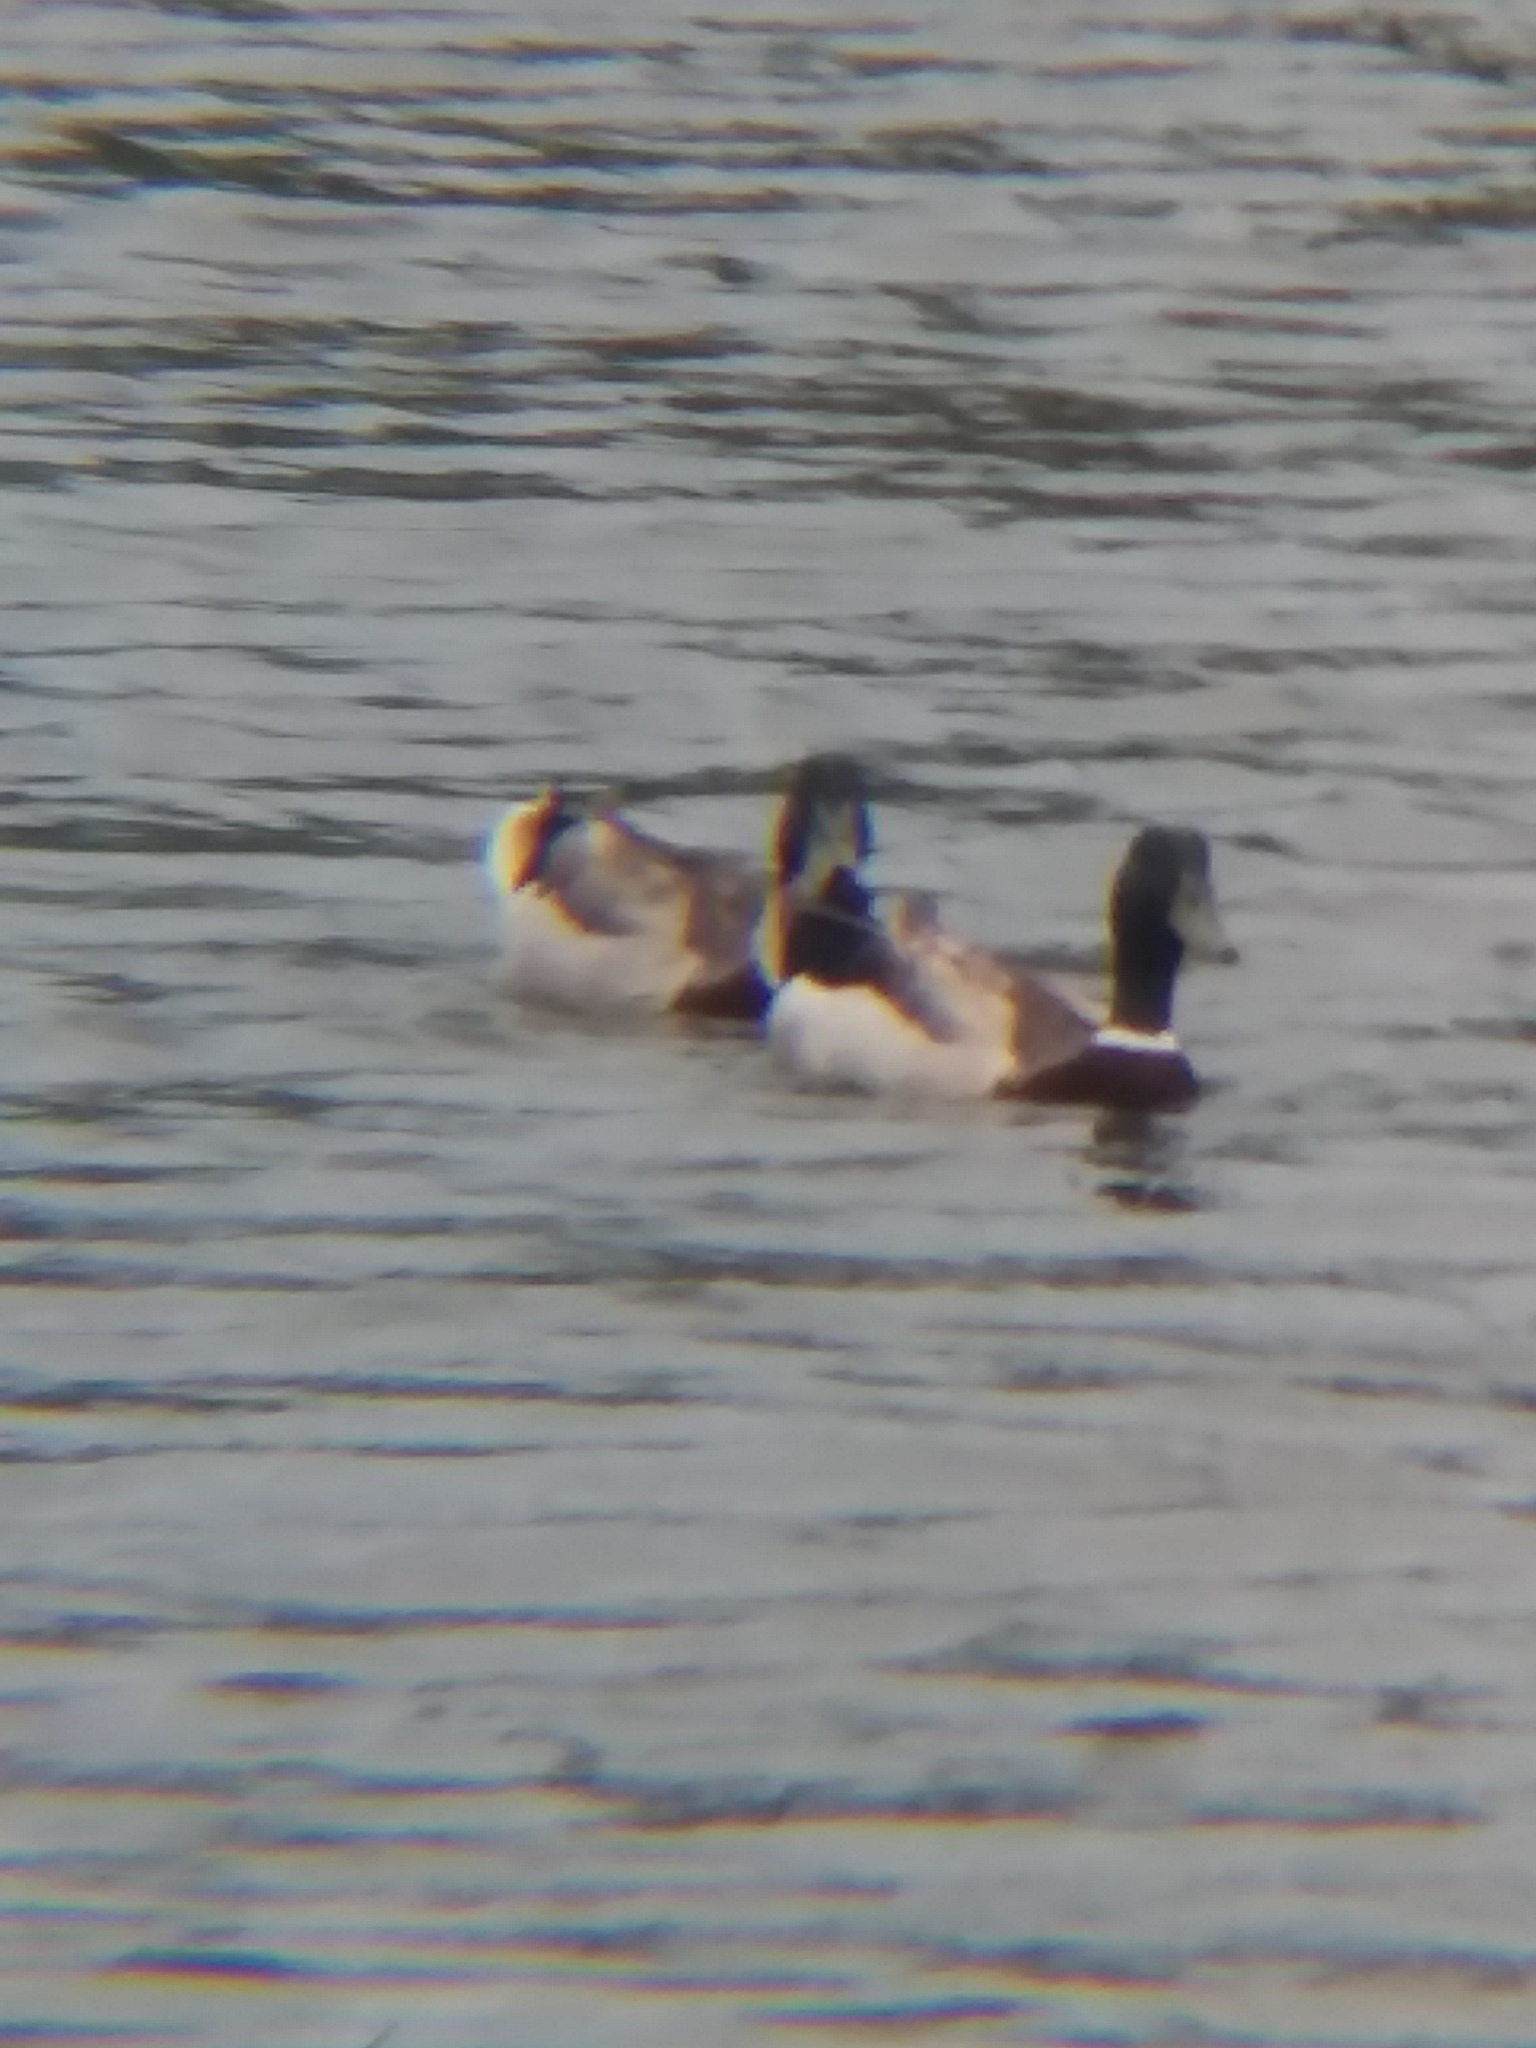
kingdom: Animalia
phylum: Chordata
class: Aves
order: Anseriformes
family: Anatidae
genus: Anas
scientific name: Anas platyrhynchos
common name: Mallard
